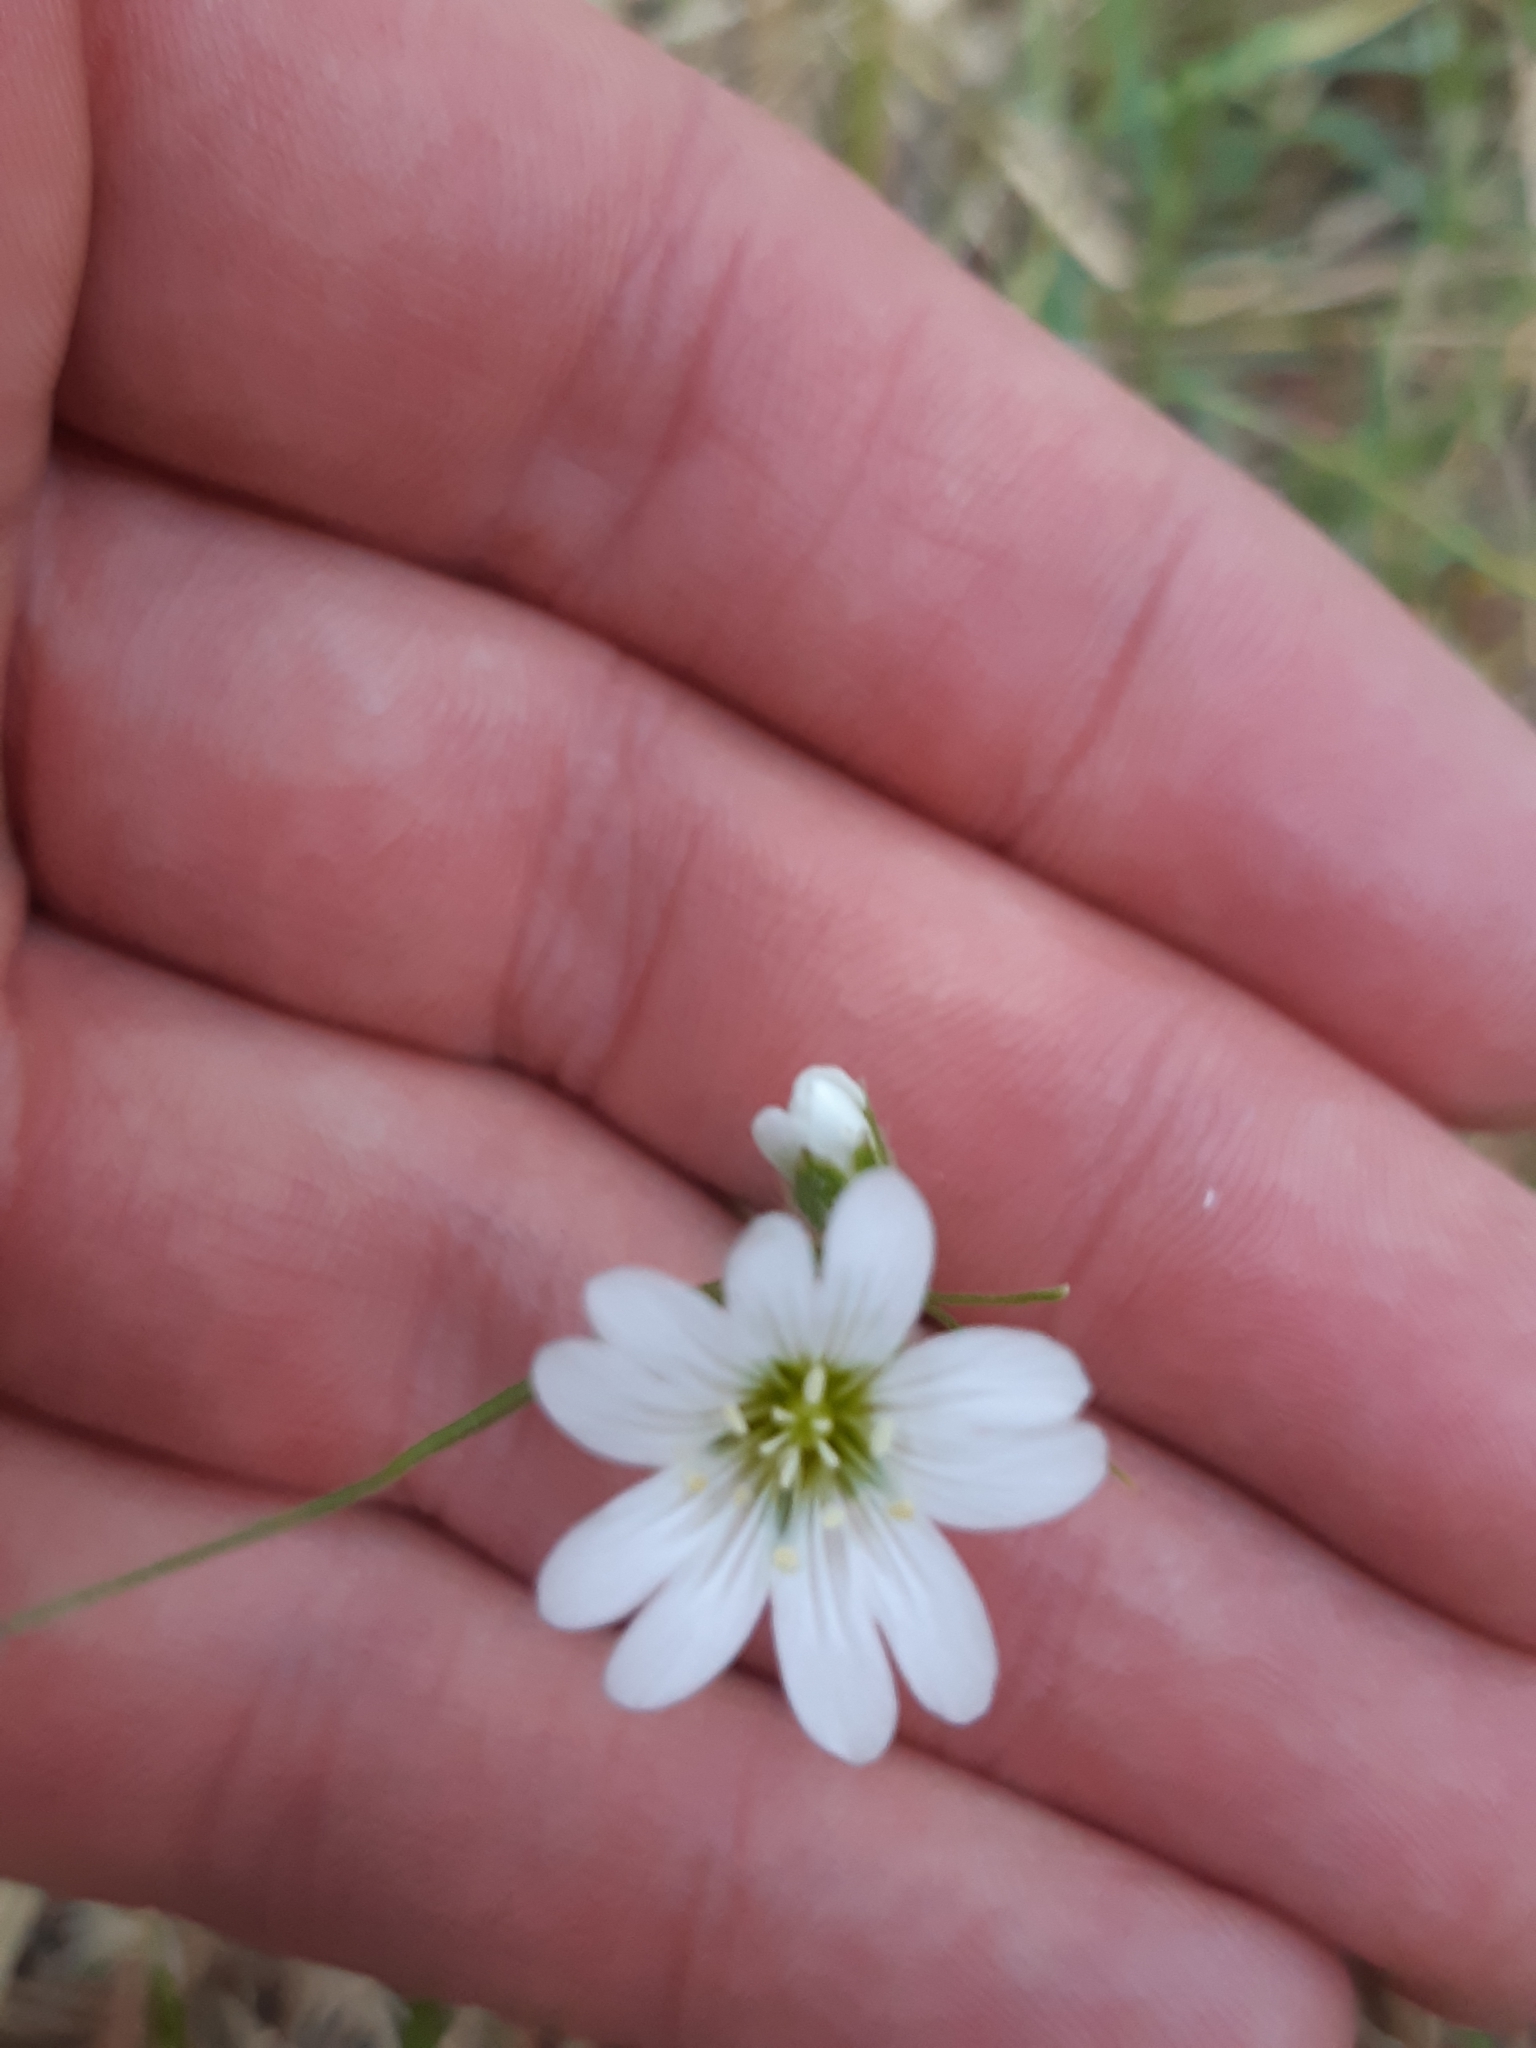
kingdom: Plantae
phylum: Tracheophyta
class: Magnoliopsida
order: Caryophyllales
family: Caryophyllaceae
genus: Cerastium
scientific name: Cerastium arvense
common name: Field mouse-ear
